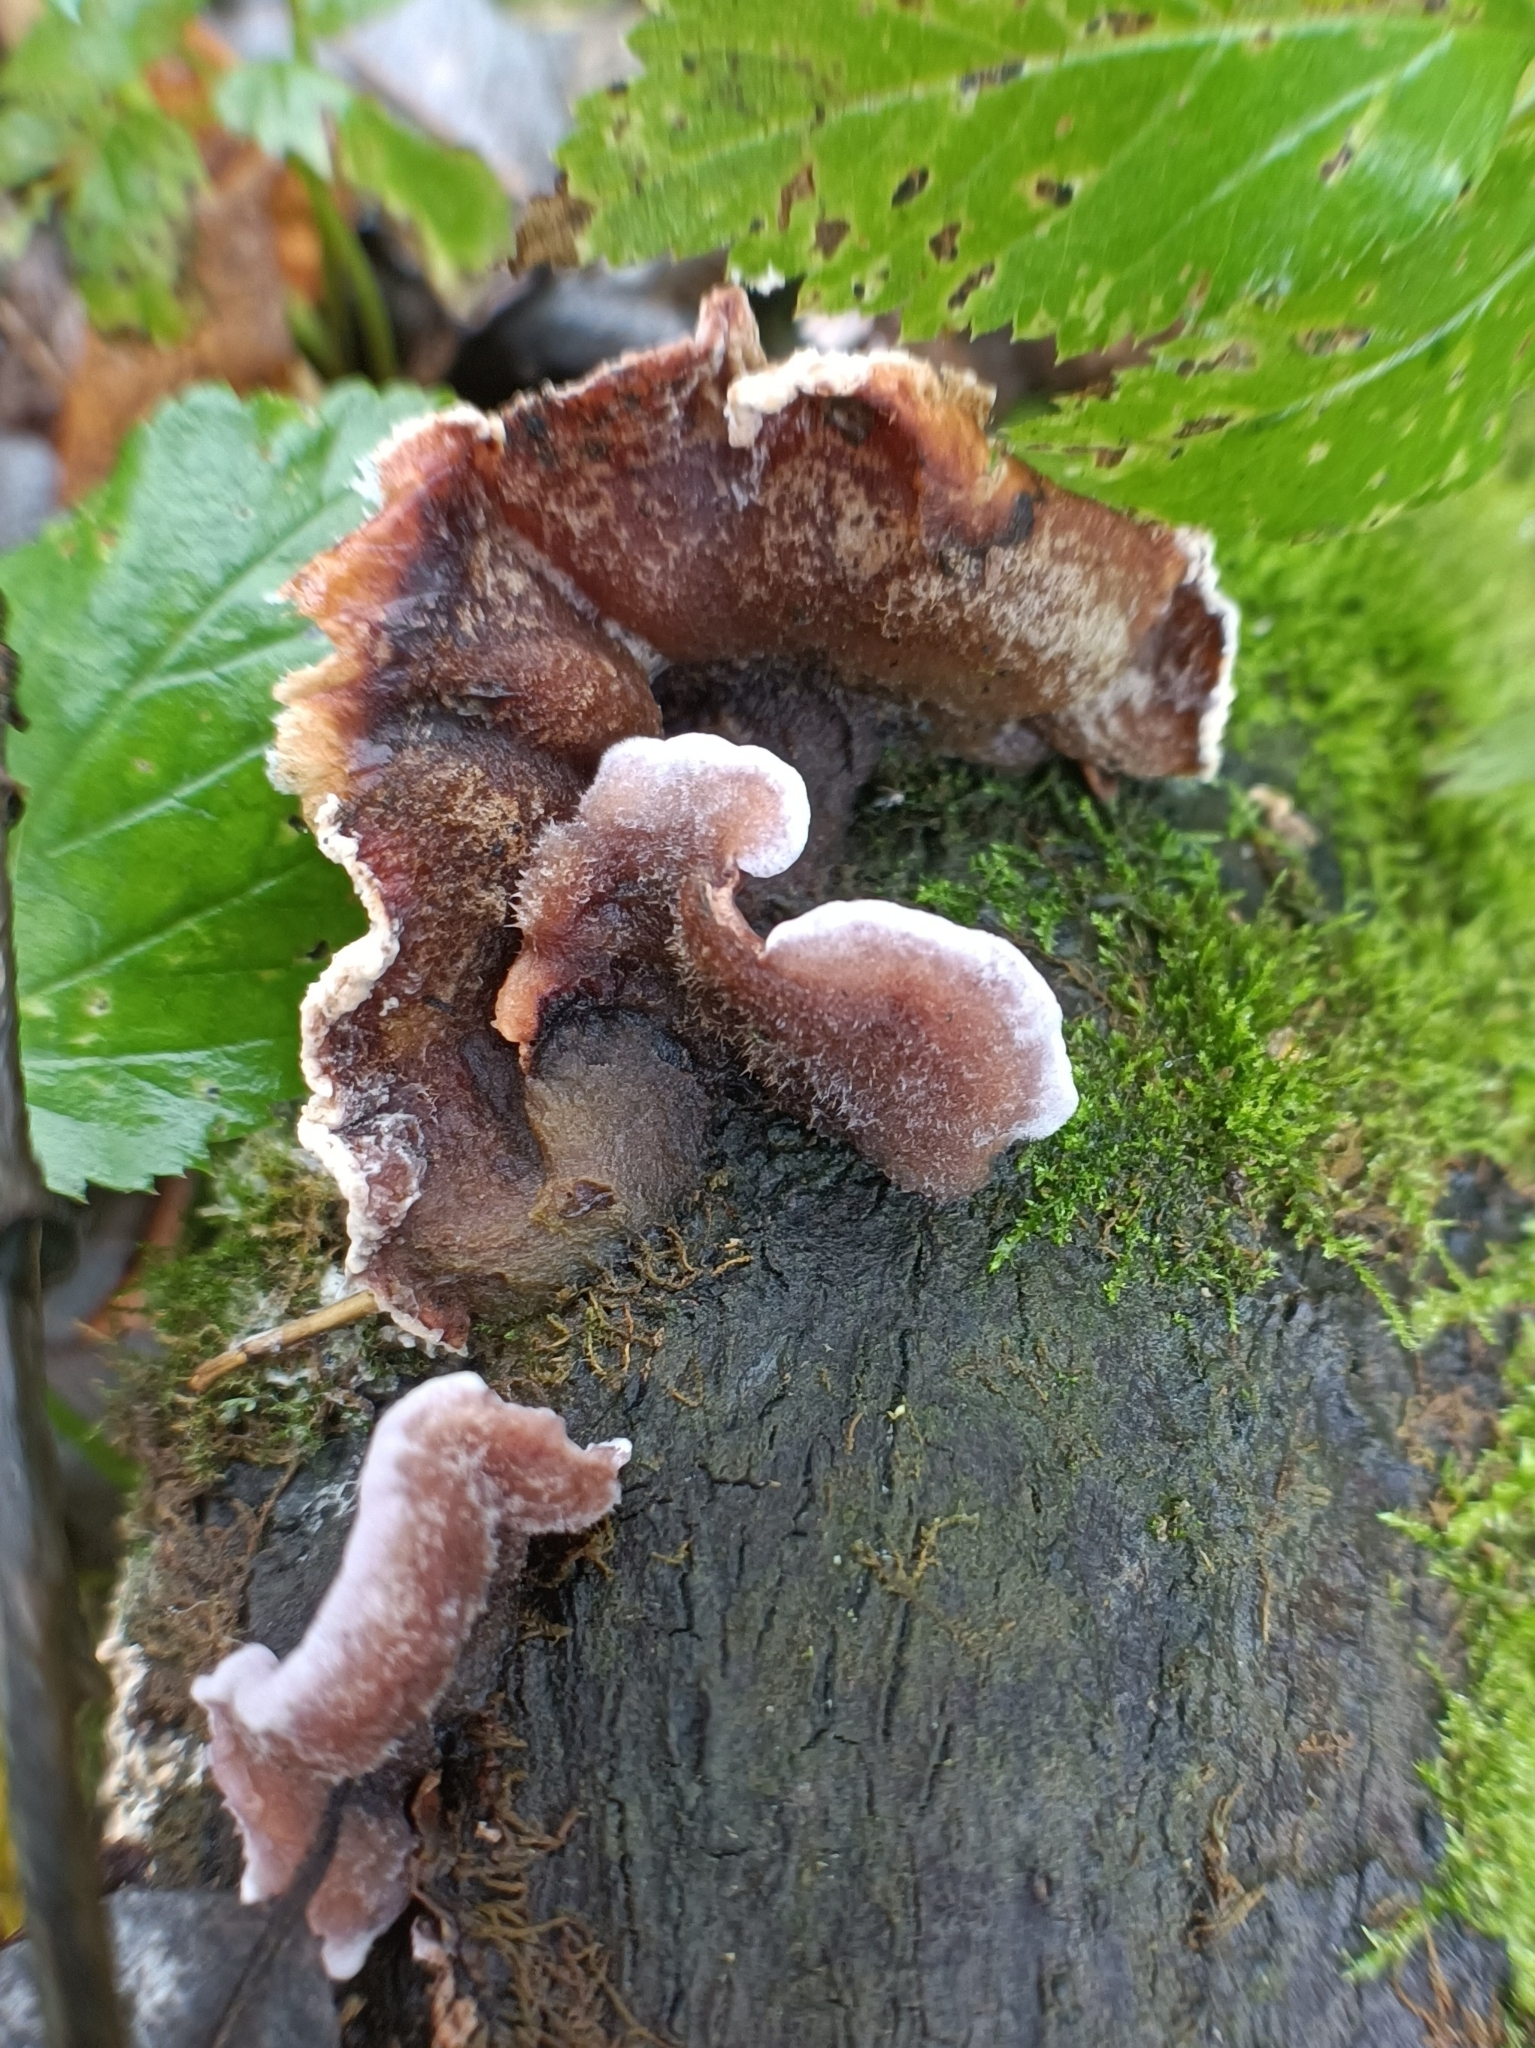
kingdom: Fungi
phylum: Basidiomycota
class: Agaricomycetes
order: Agaricales
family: Cyphellaceae
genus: Chondrostereum
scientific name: Chondrostereum purpureum
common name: Silver leaf disease
